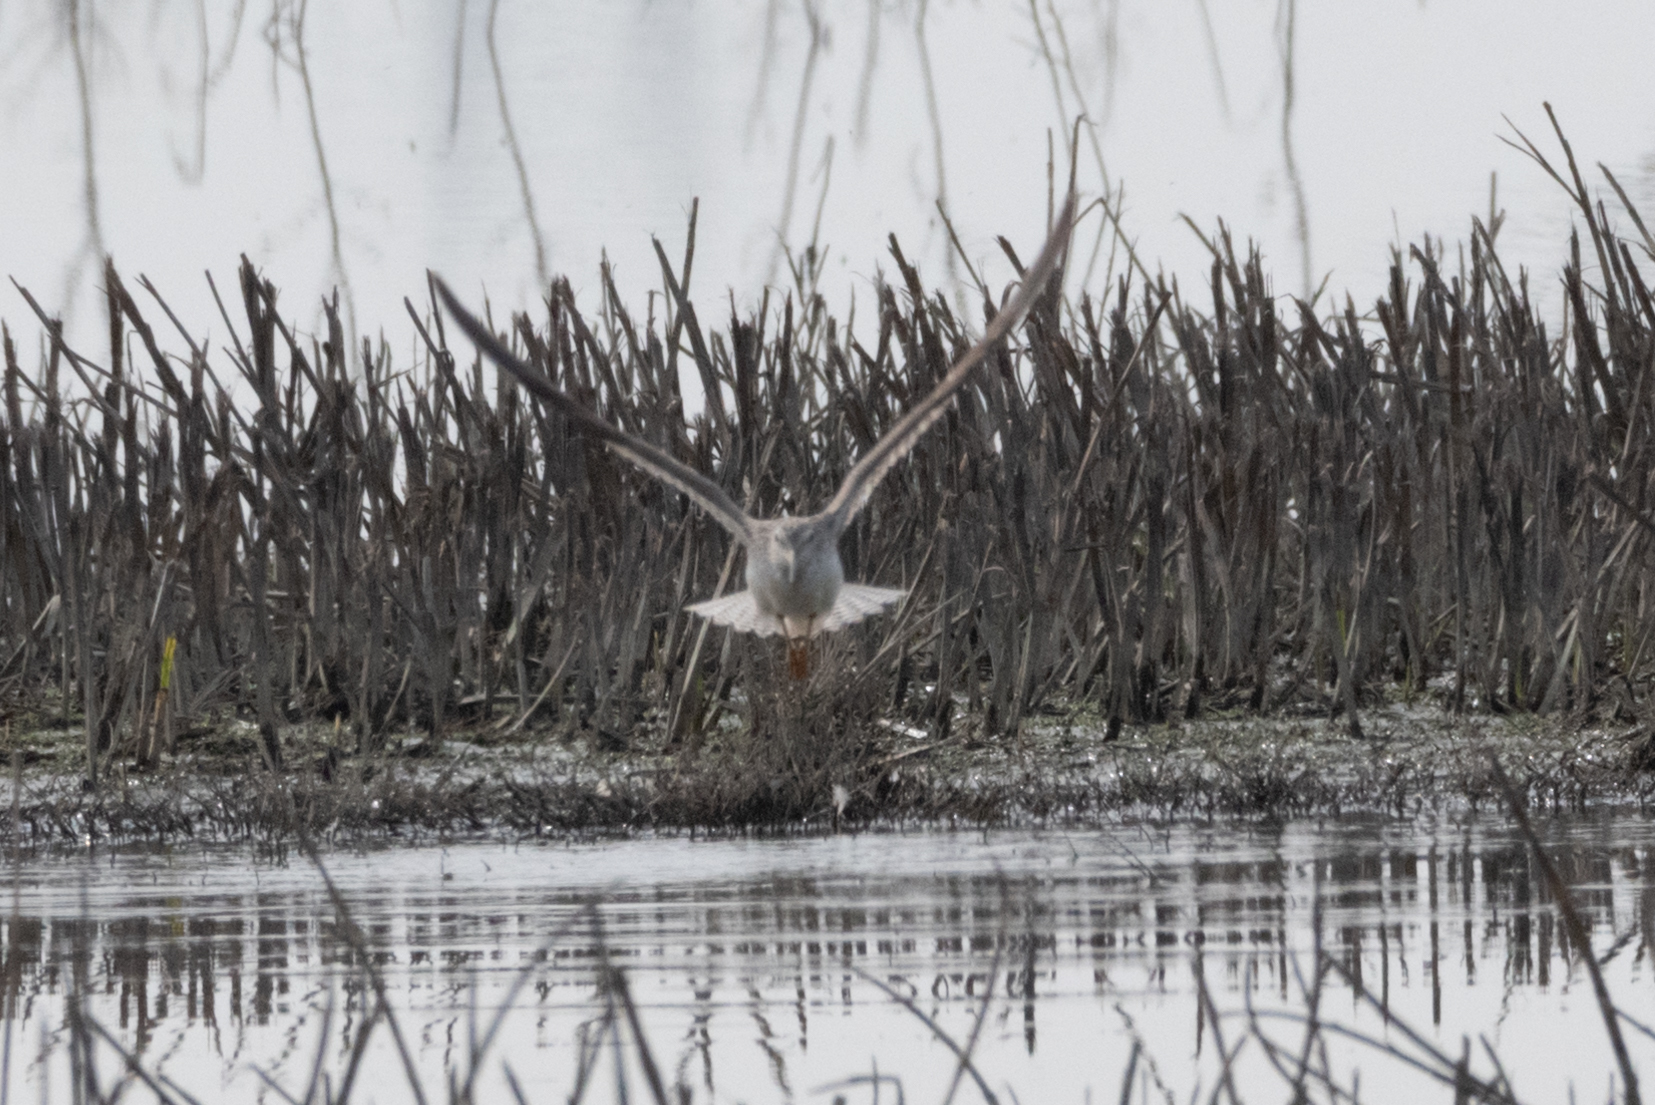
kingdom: Animalia
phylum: Chordata
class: Aves
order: Charadriiformes
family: Scolopacidae
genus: Tringa
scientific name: Tringa melanoleuca
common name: Greater yellowlegs
